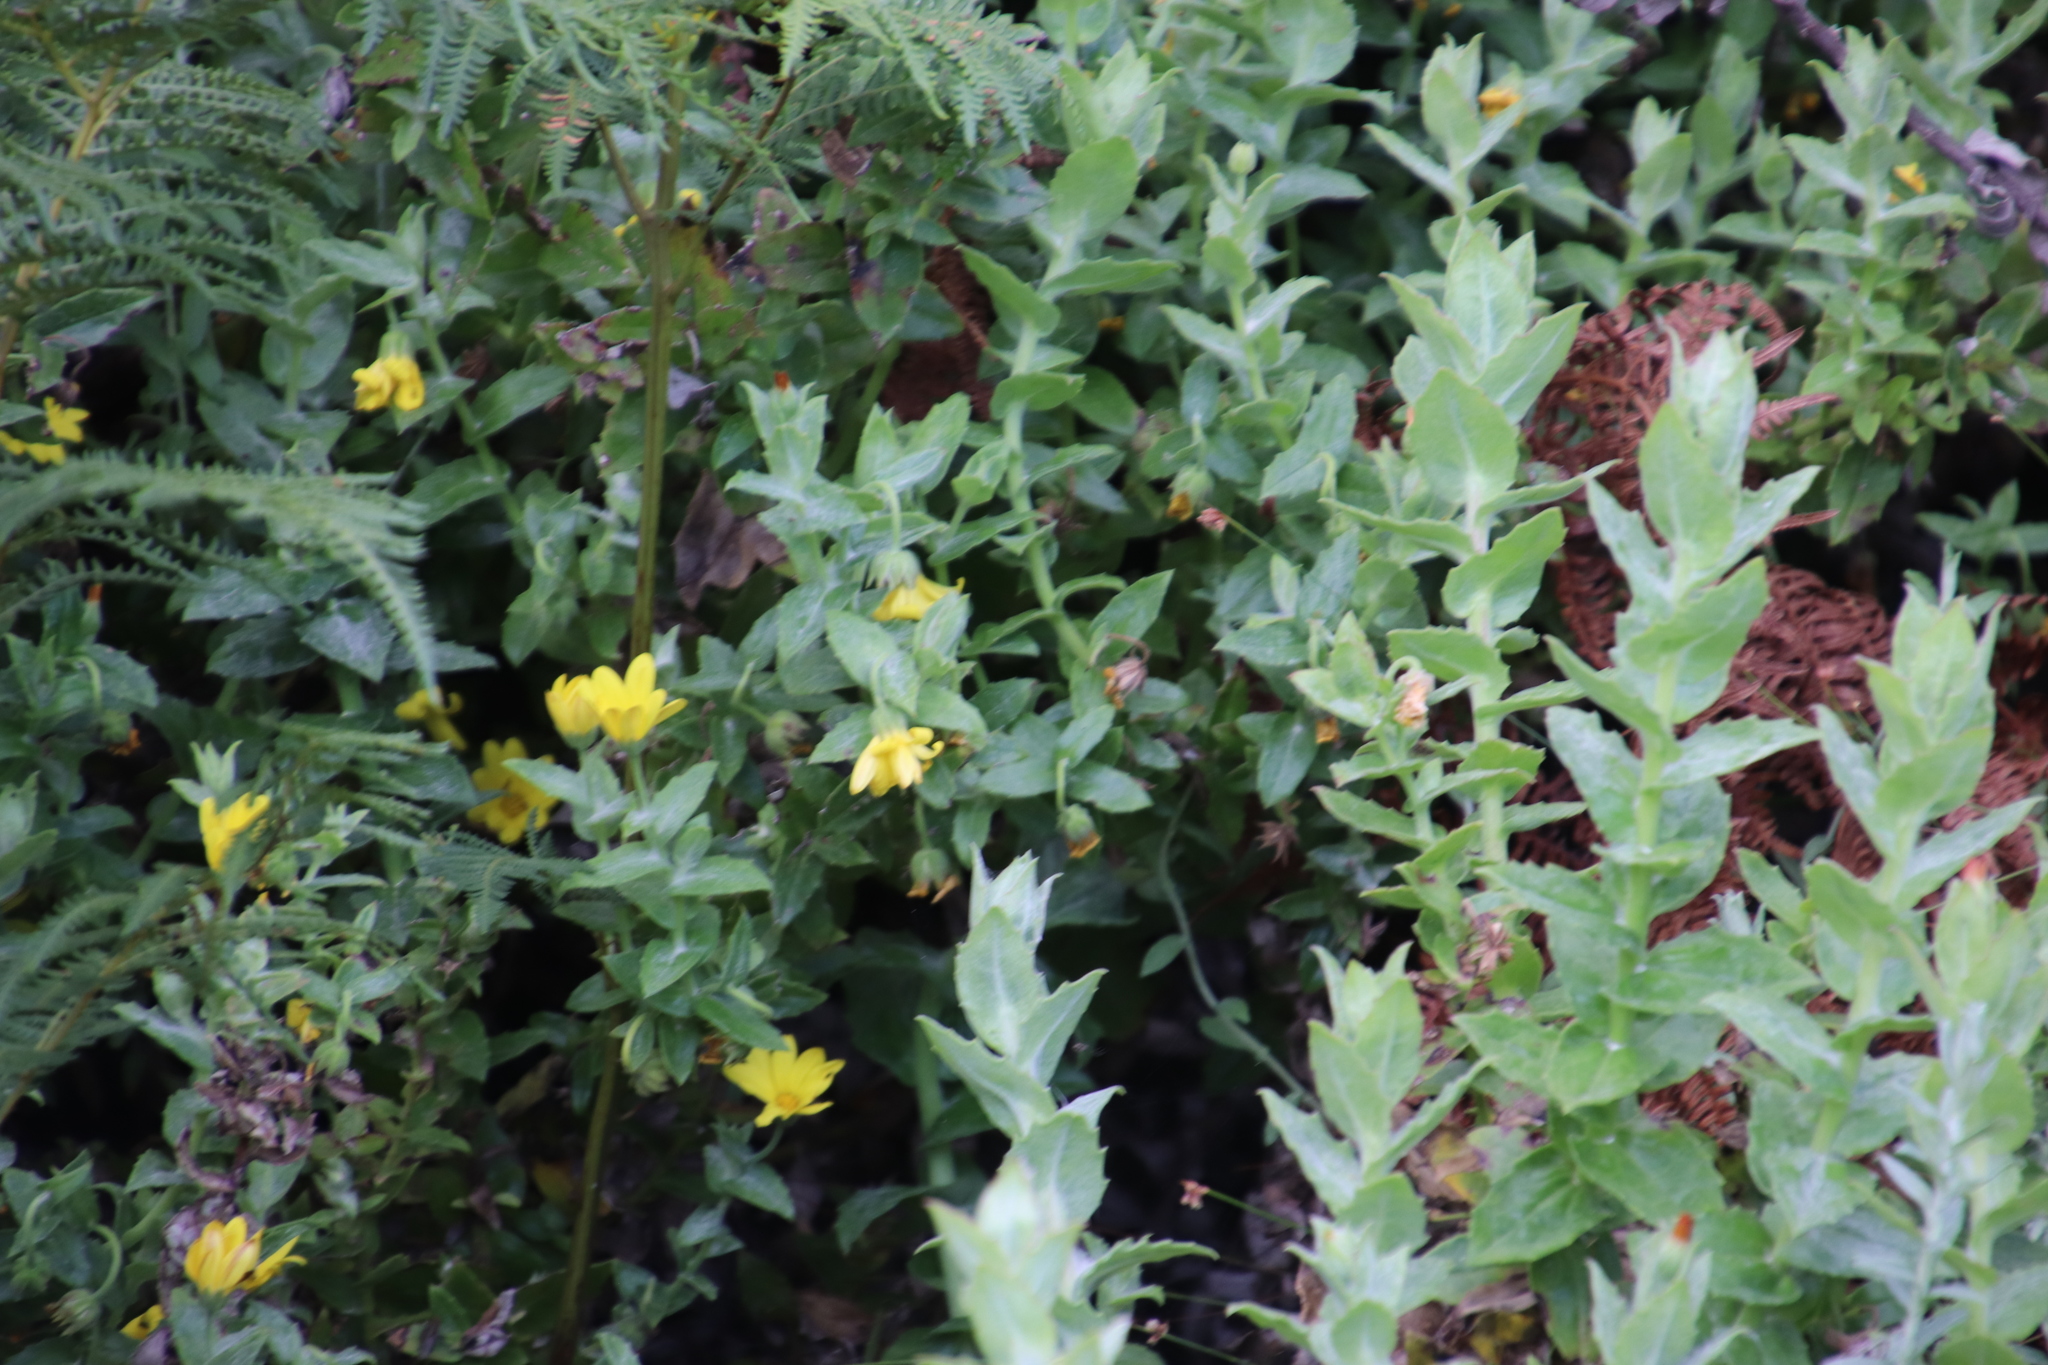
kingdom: Plantae
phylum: Tracheophyta
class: Magnoliopsida
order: Asterales
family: Asteraceae
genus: Osteospermum
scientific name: Osteospermum ilicifolium
